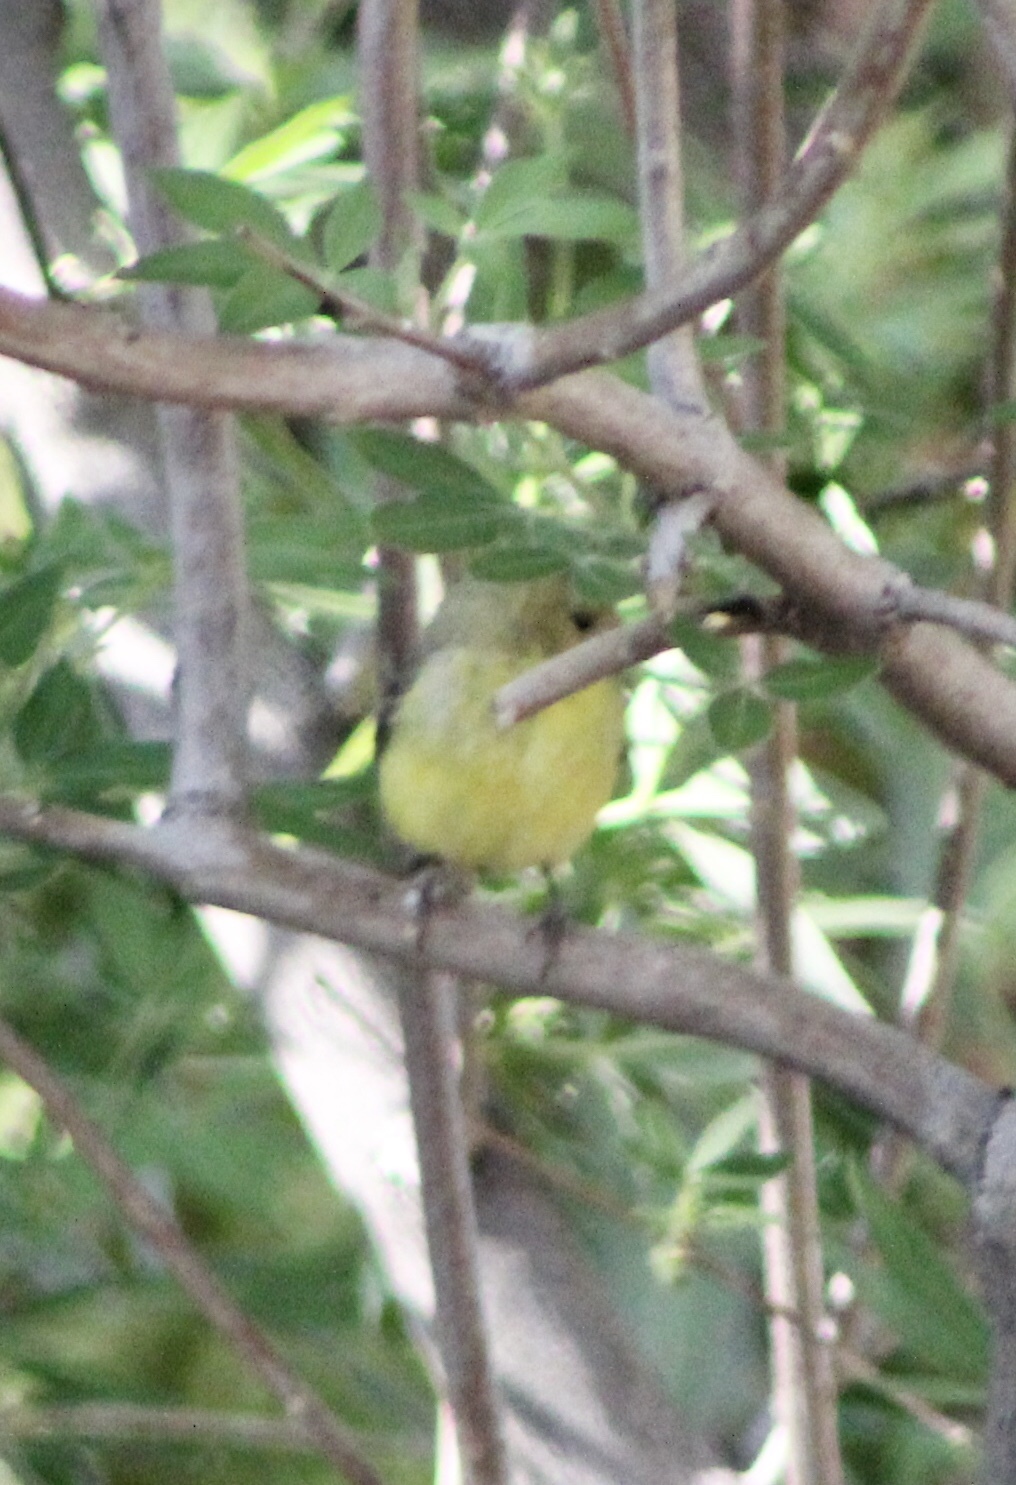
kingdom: Animalia
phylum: Chordata
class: Aves
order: Passeriformes
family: Fringillidae
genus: Spinus
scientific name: Spinus psaltria
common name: Lesser goldfinch
